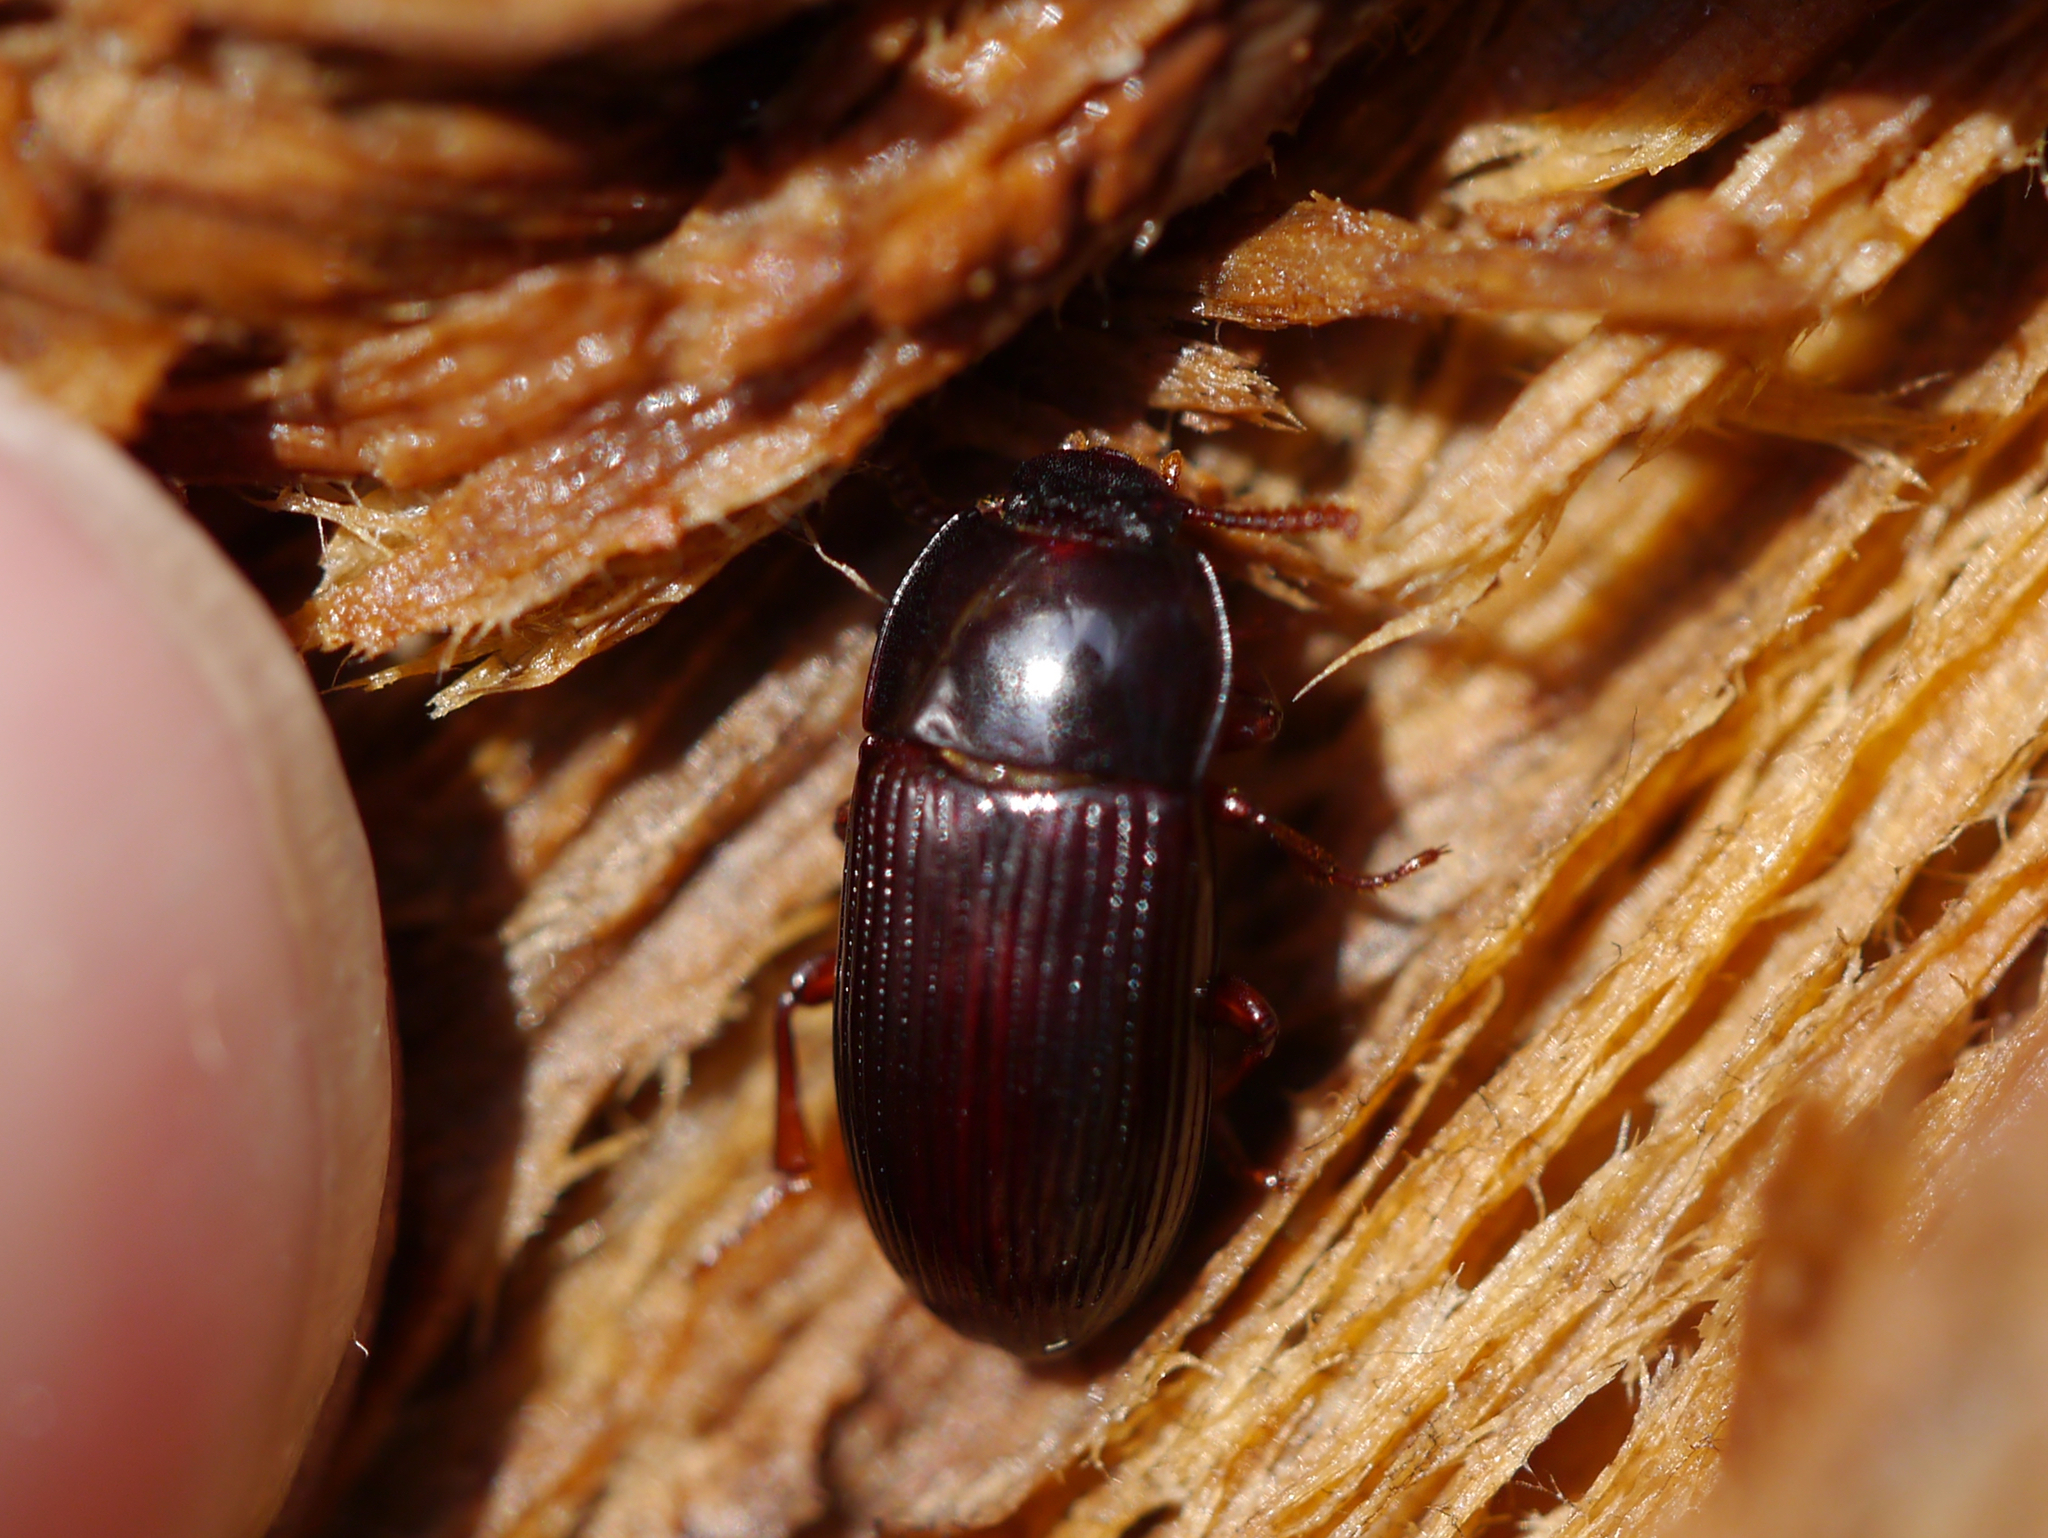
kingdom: Animalia
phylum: Arthropoda
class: Insecta
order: Coleoptera
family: Tenebrionidae
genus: Uloma
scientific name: Uloma imberbis
